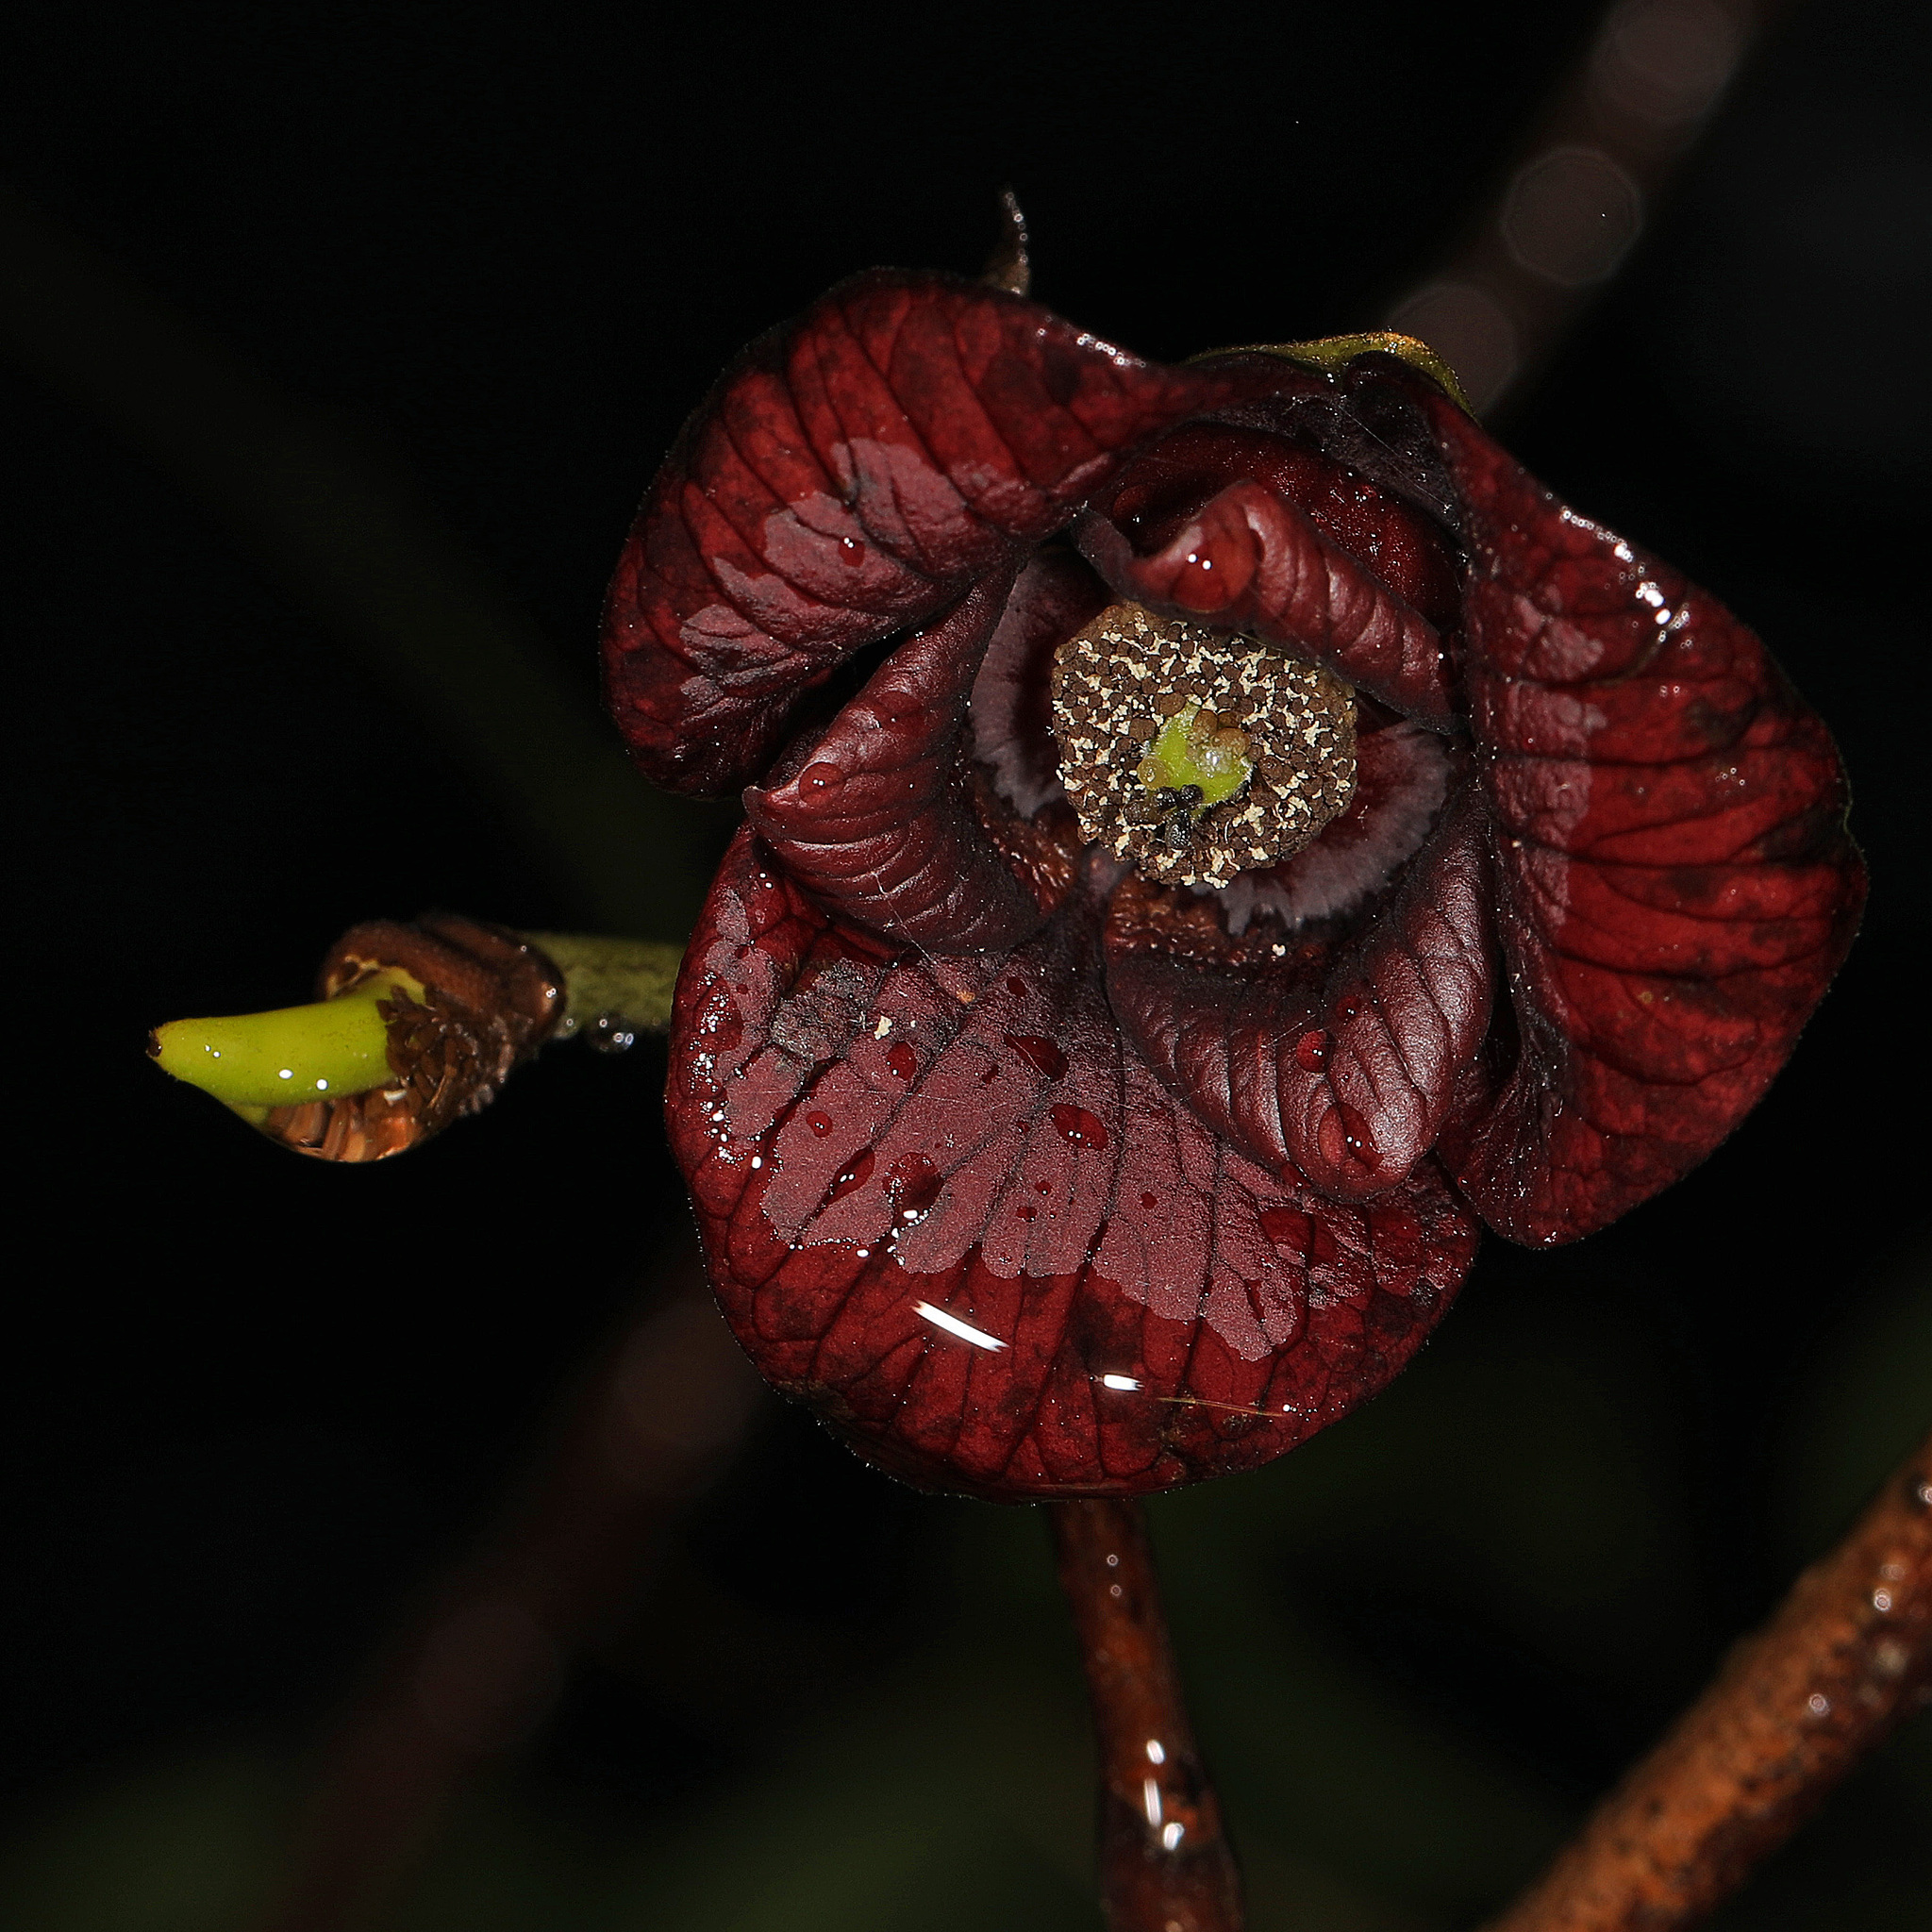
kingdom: Plantae
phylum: Tracheophyta
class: Magnoliopsida
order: Magnoliales
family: Annonaceae
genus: Asimina
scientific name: Asimina triloba
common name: Dog-banana
